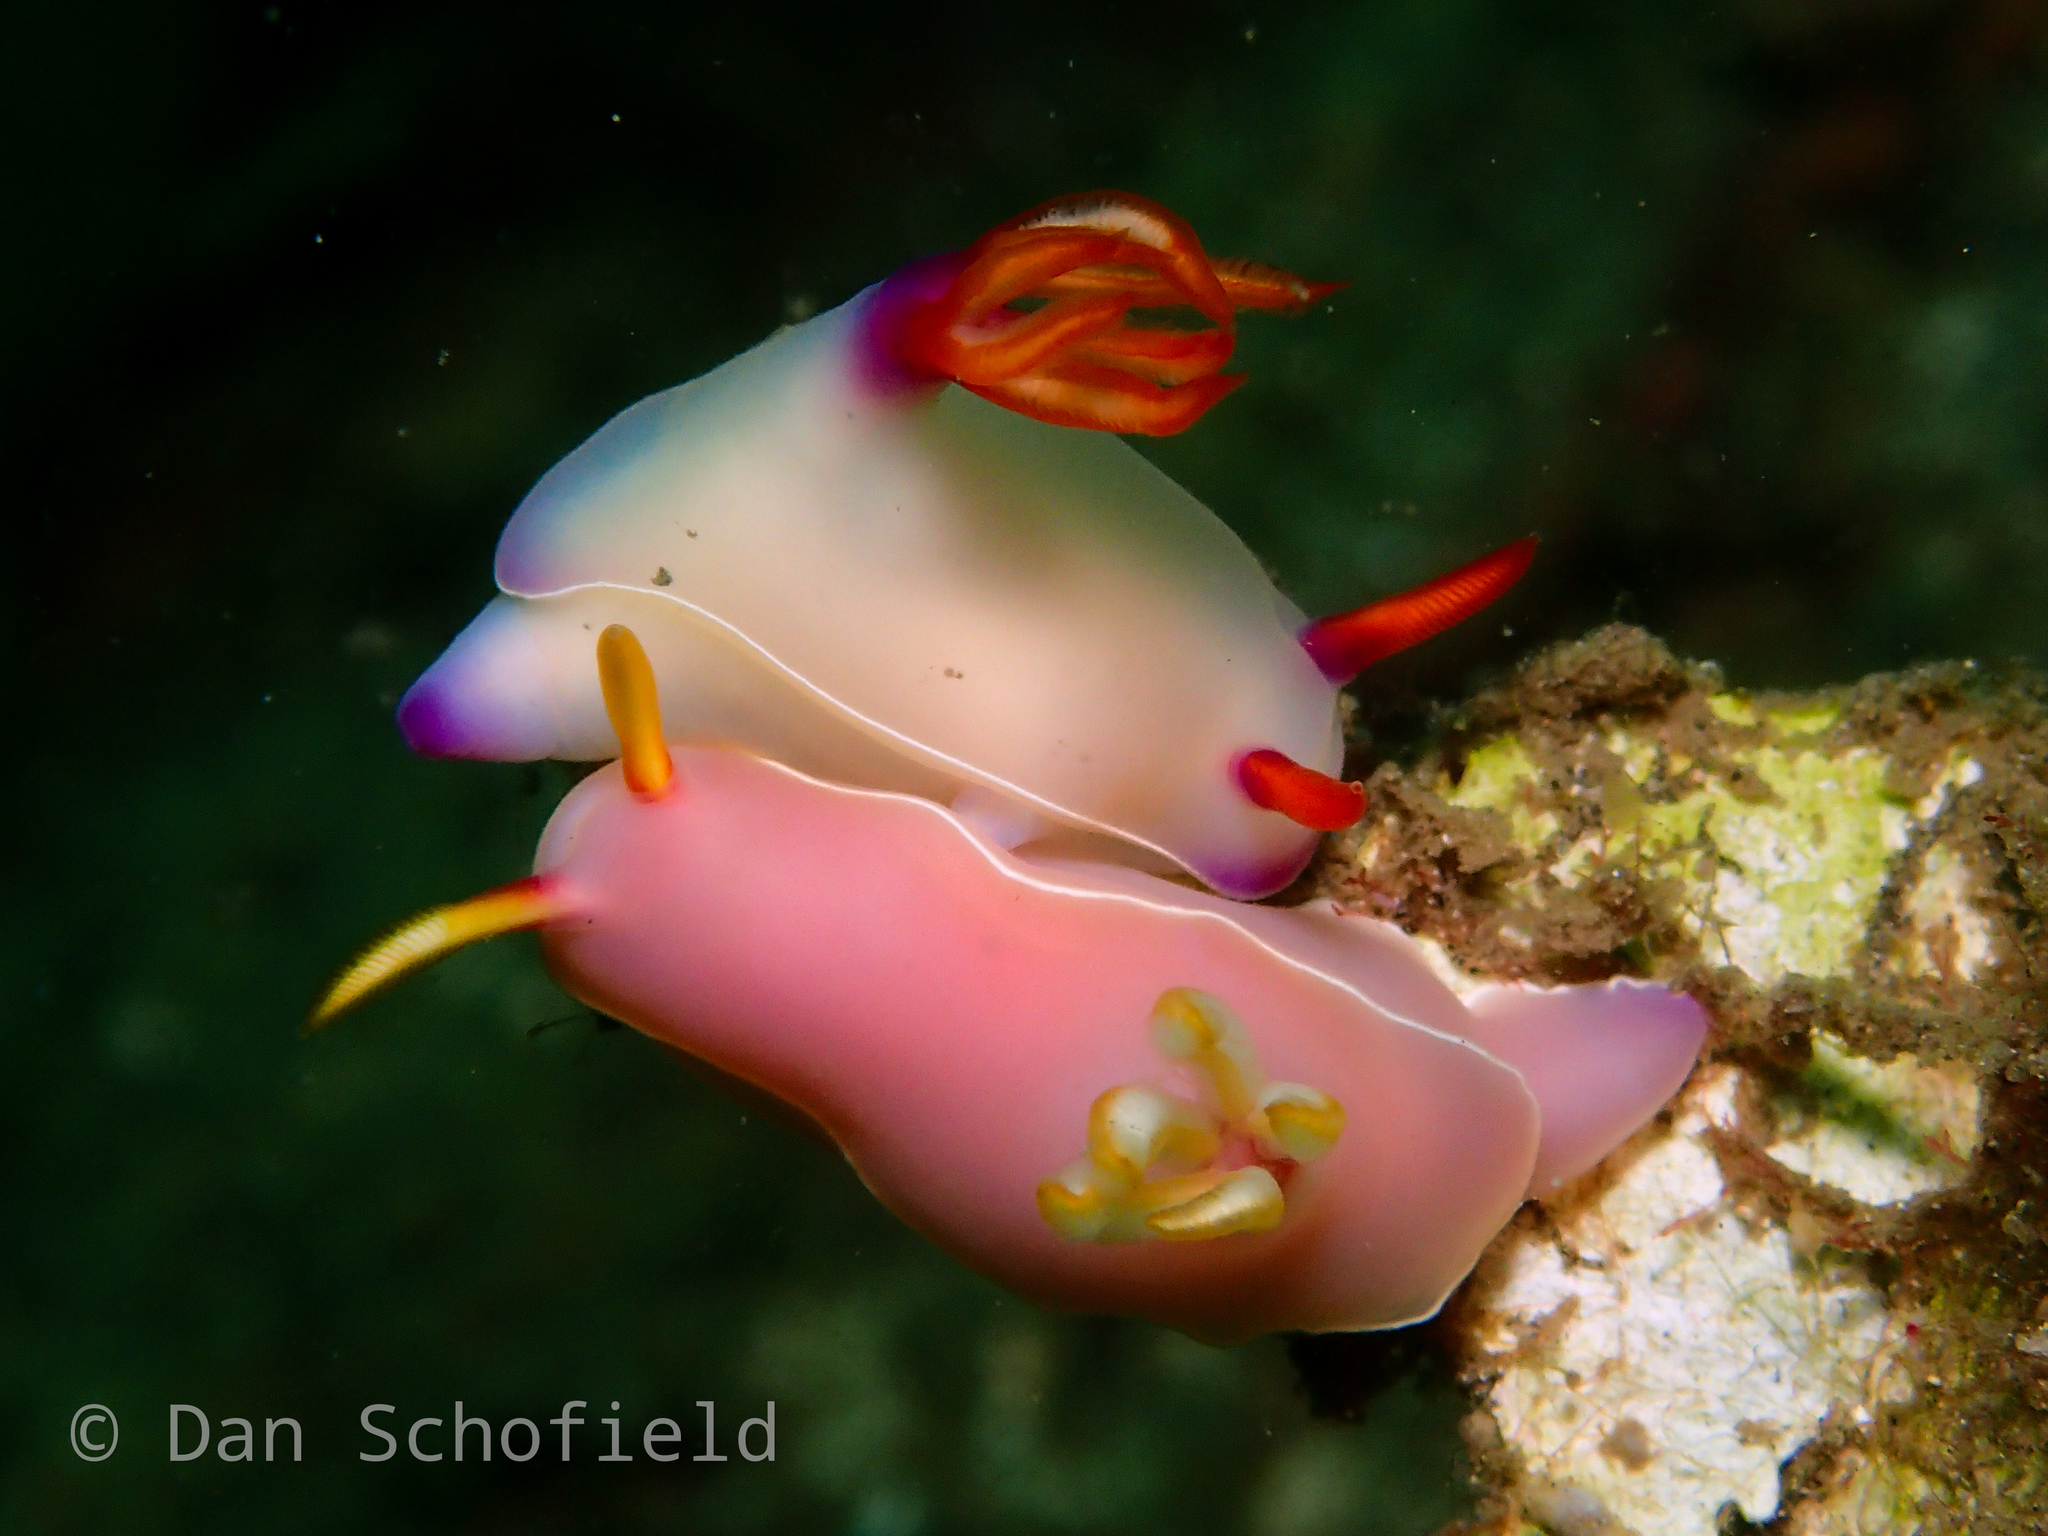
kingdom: Animalia
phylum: Mollusca
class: Gastropoda
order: Nudibranchia
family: Chromodorididae
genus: Hypselodoris
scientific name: Hypselodoris bullockii
